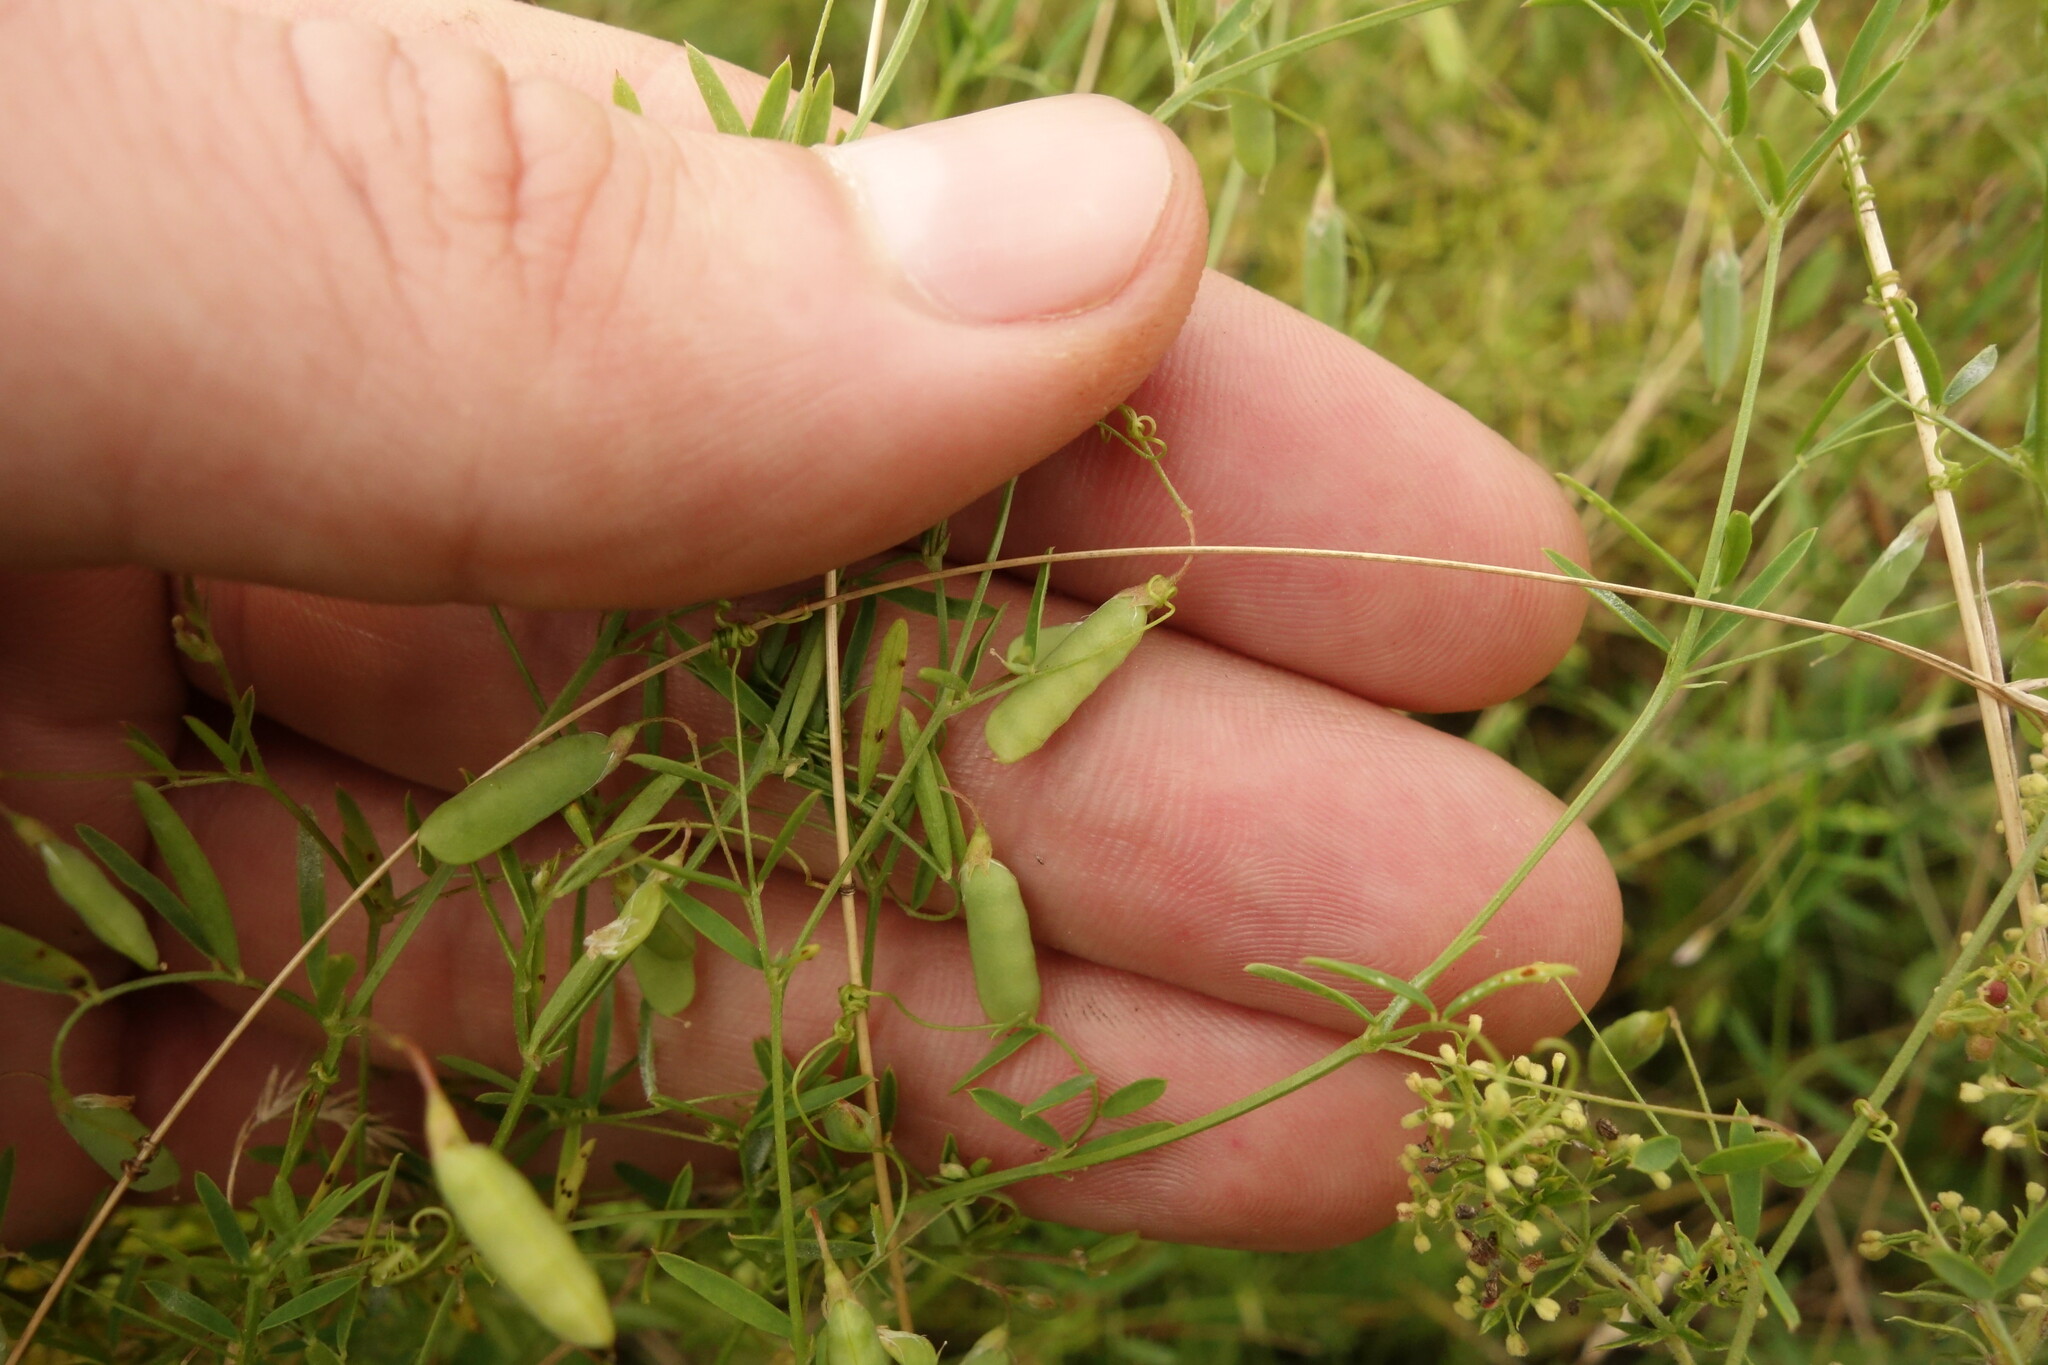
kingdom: Plantae
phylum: Tracheophyta
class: Magnoliopsida
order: Fabales
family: Fabaceae
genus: Vicia
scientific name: Vicia tetrasperma
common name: Smooth tare
